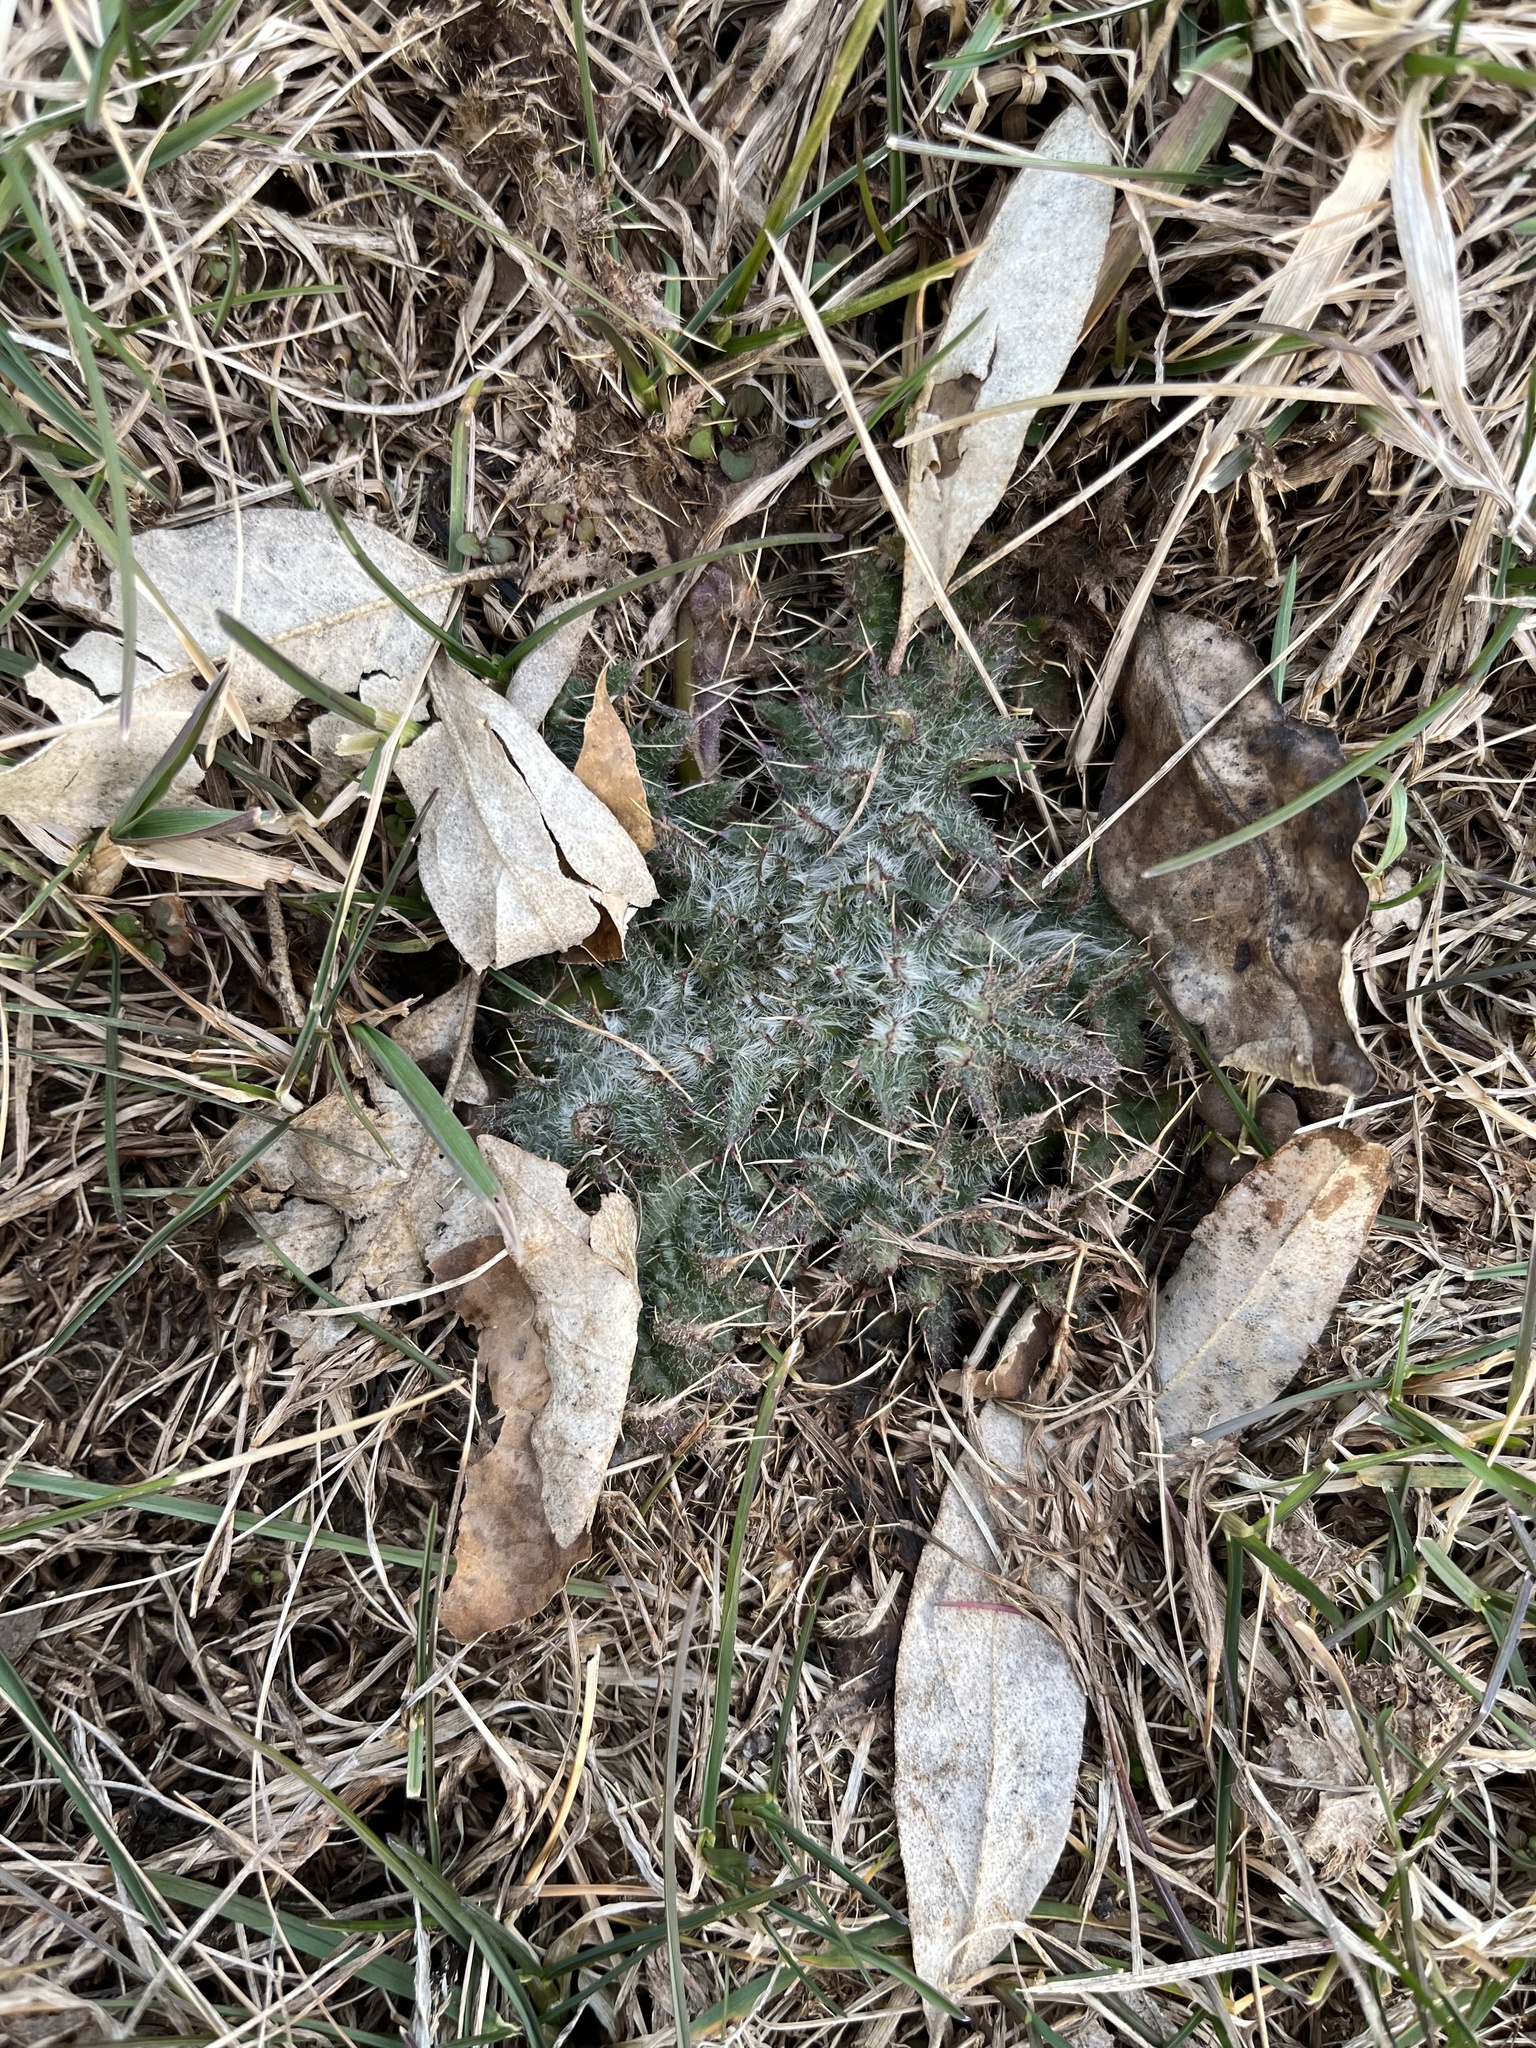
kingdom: Plantae
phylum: Tracheophyta
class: Magnoliopsida
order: Asterales
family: Asteraceae
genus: Cirsium
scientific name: Cirsium vulgare
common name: Bull thistle
